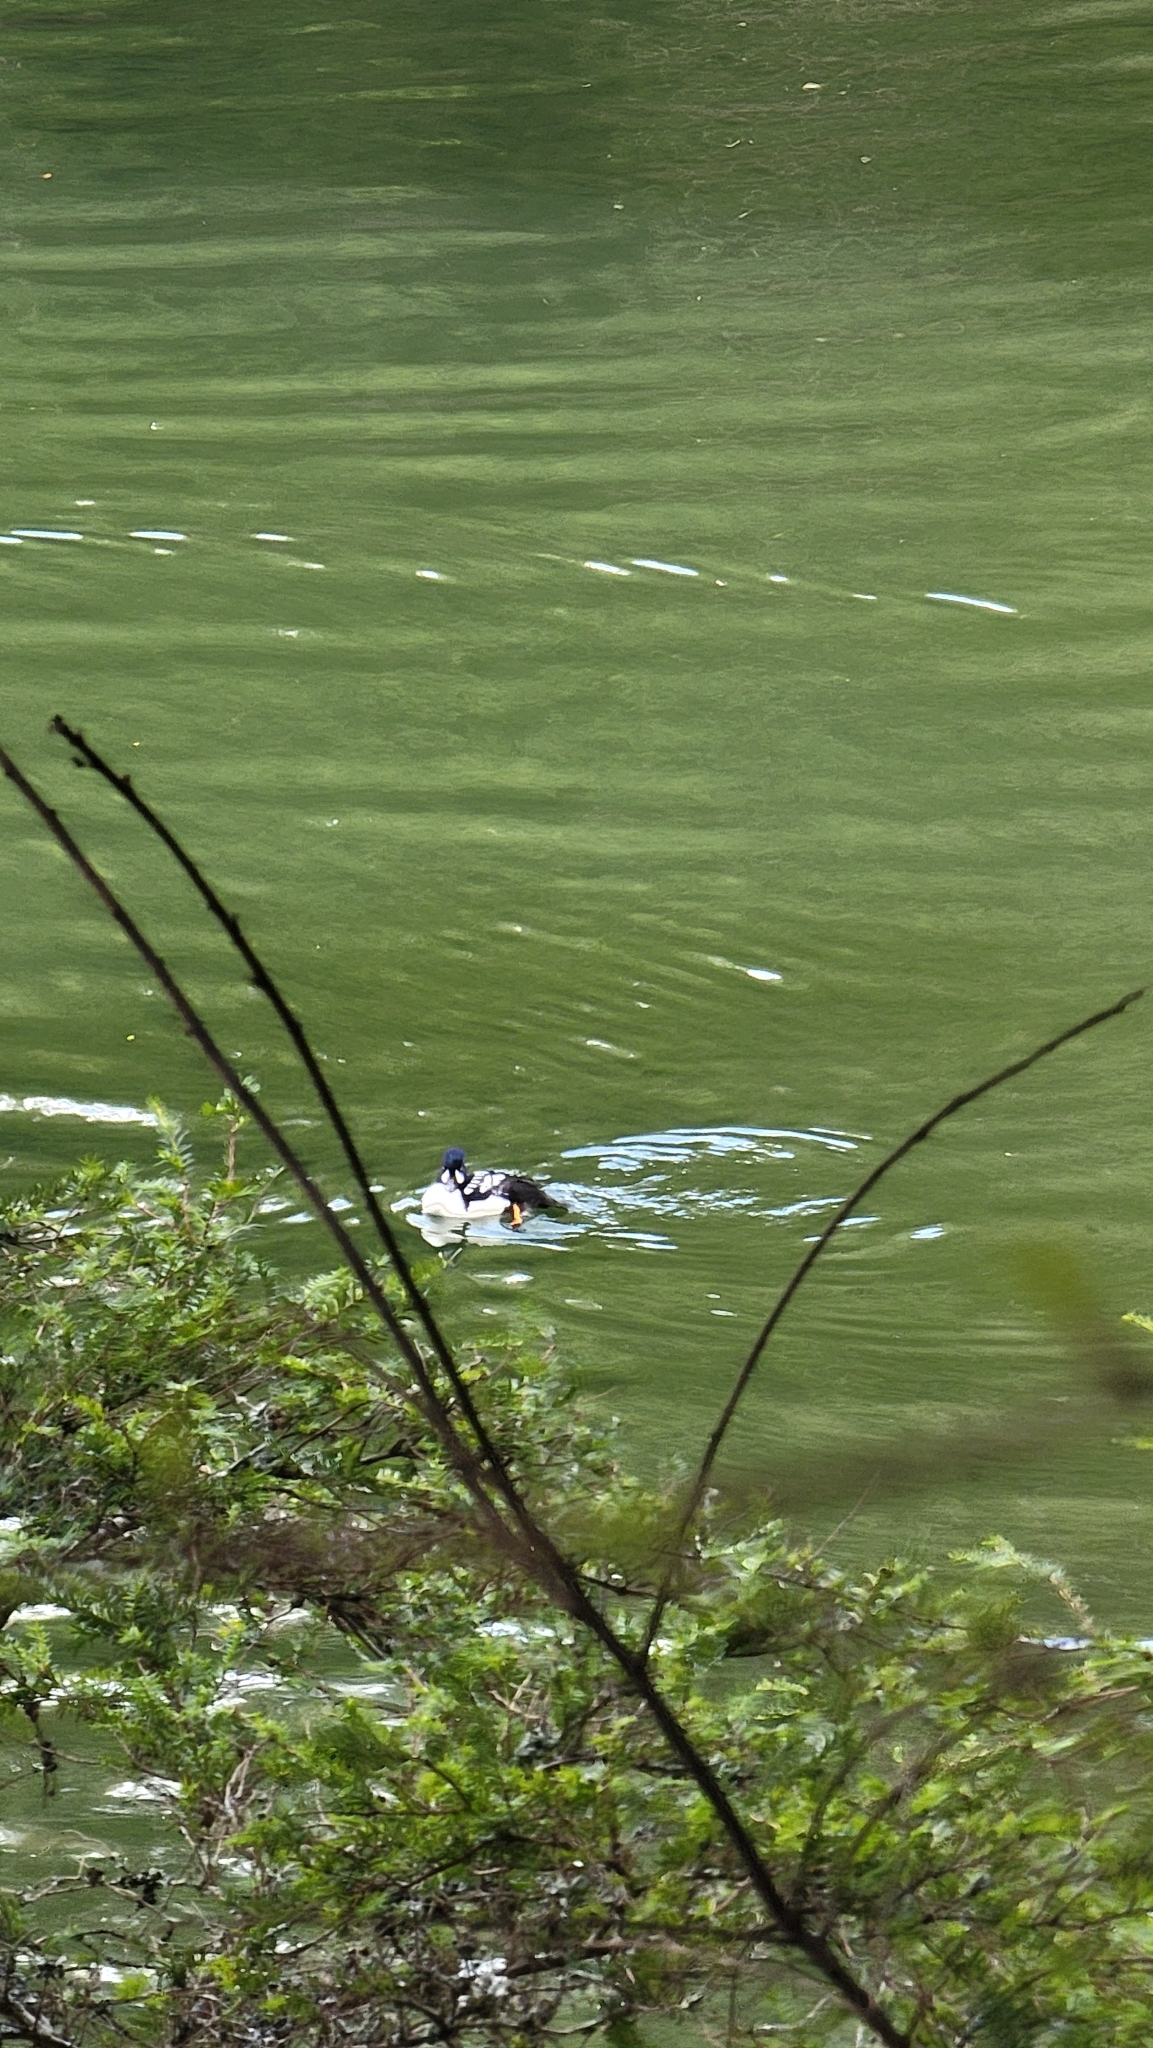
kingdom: Animalia
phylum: Chordata
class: Aves
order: Anseriformes
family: Anatidae
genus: Bucephala
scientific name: Bucephala islandica
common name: Barrow's goldeneye
